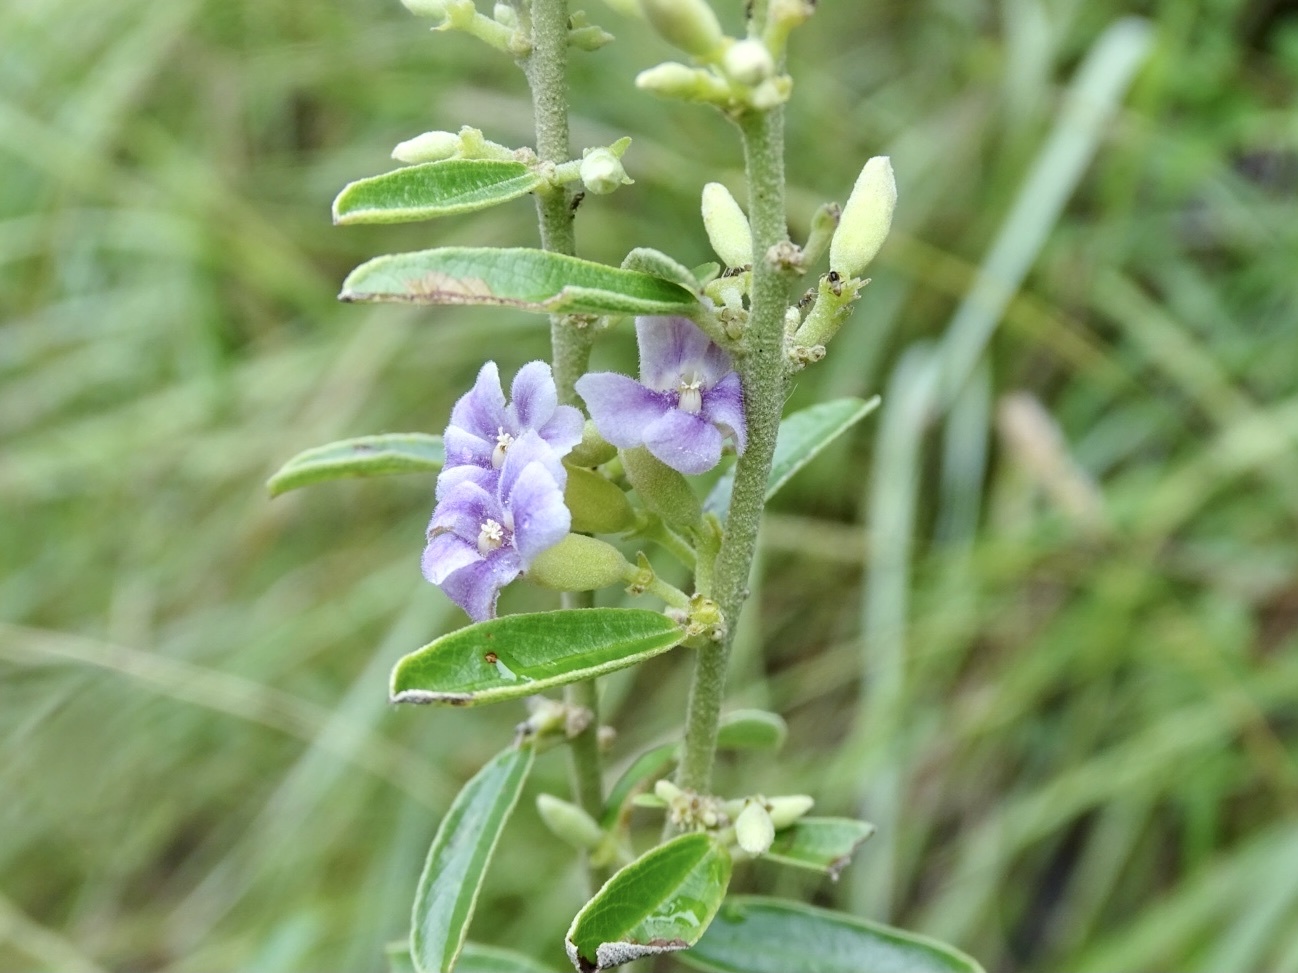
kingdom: Plantae
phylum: Tracheophyta
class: Magnoliopsida
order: Malvales
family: Malvaceae
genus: Helicteres
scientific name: Helicteres angustifolia
